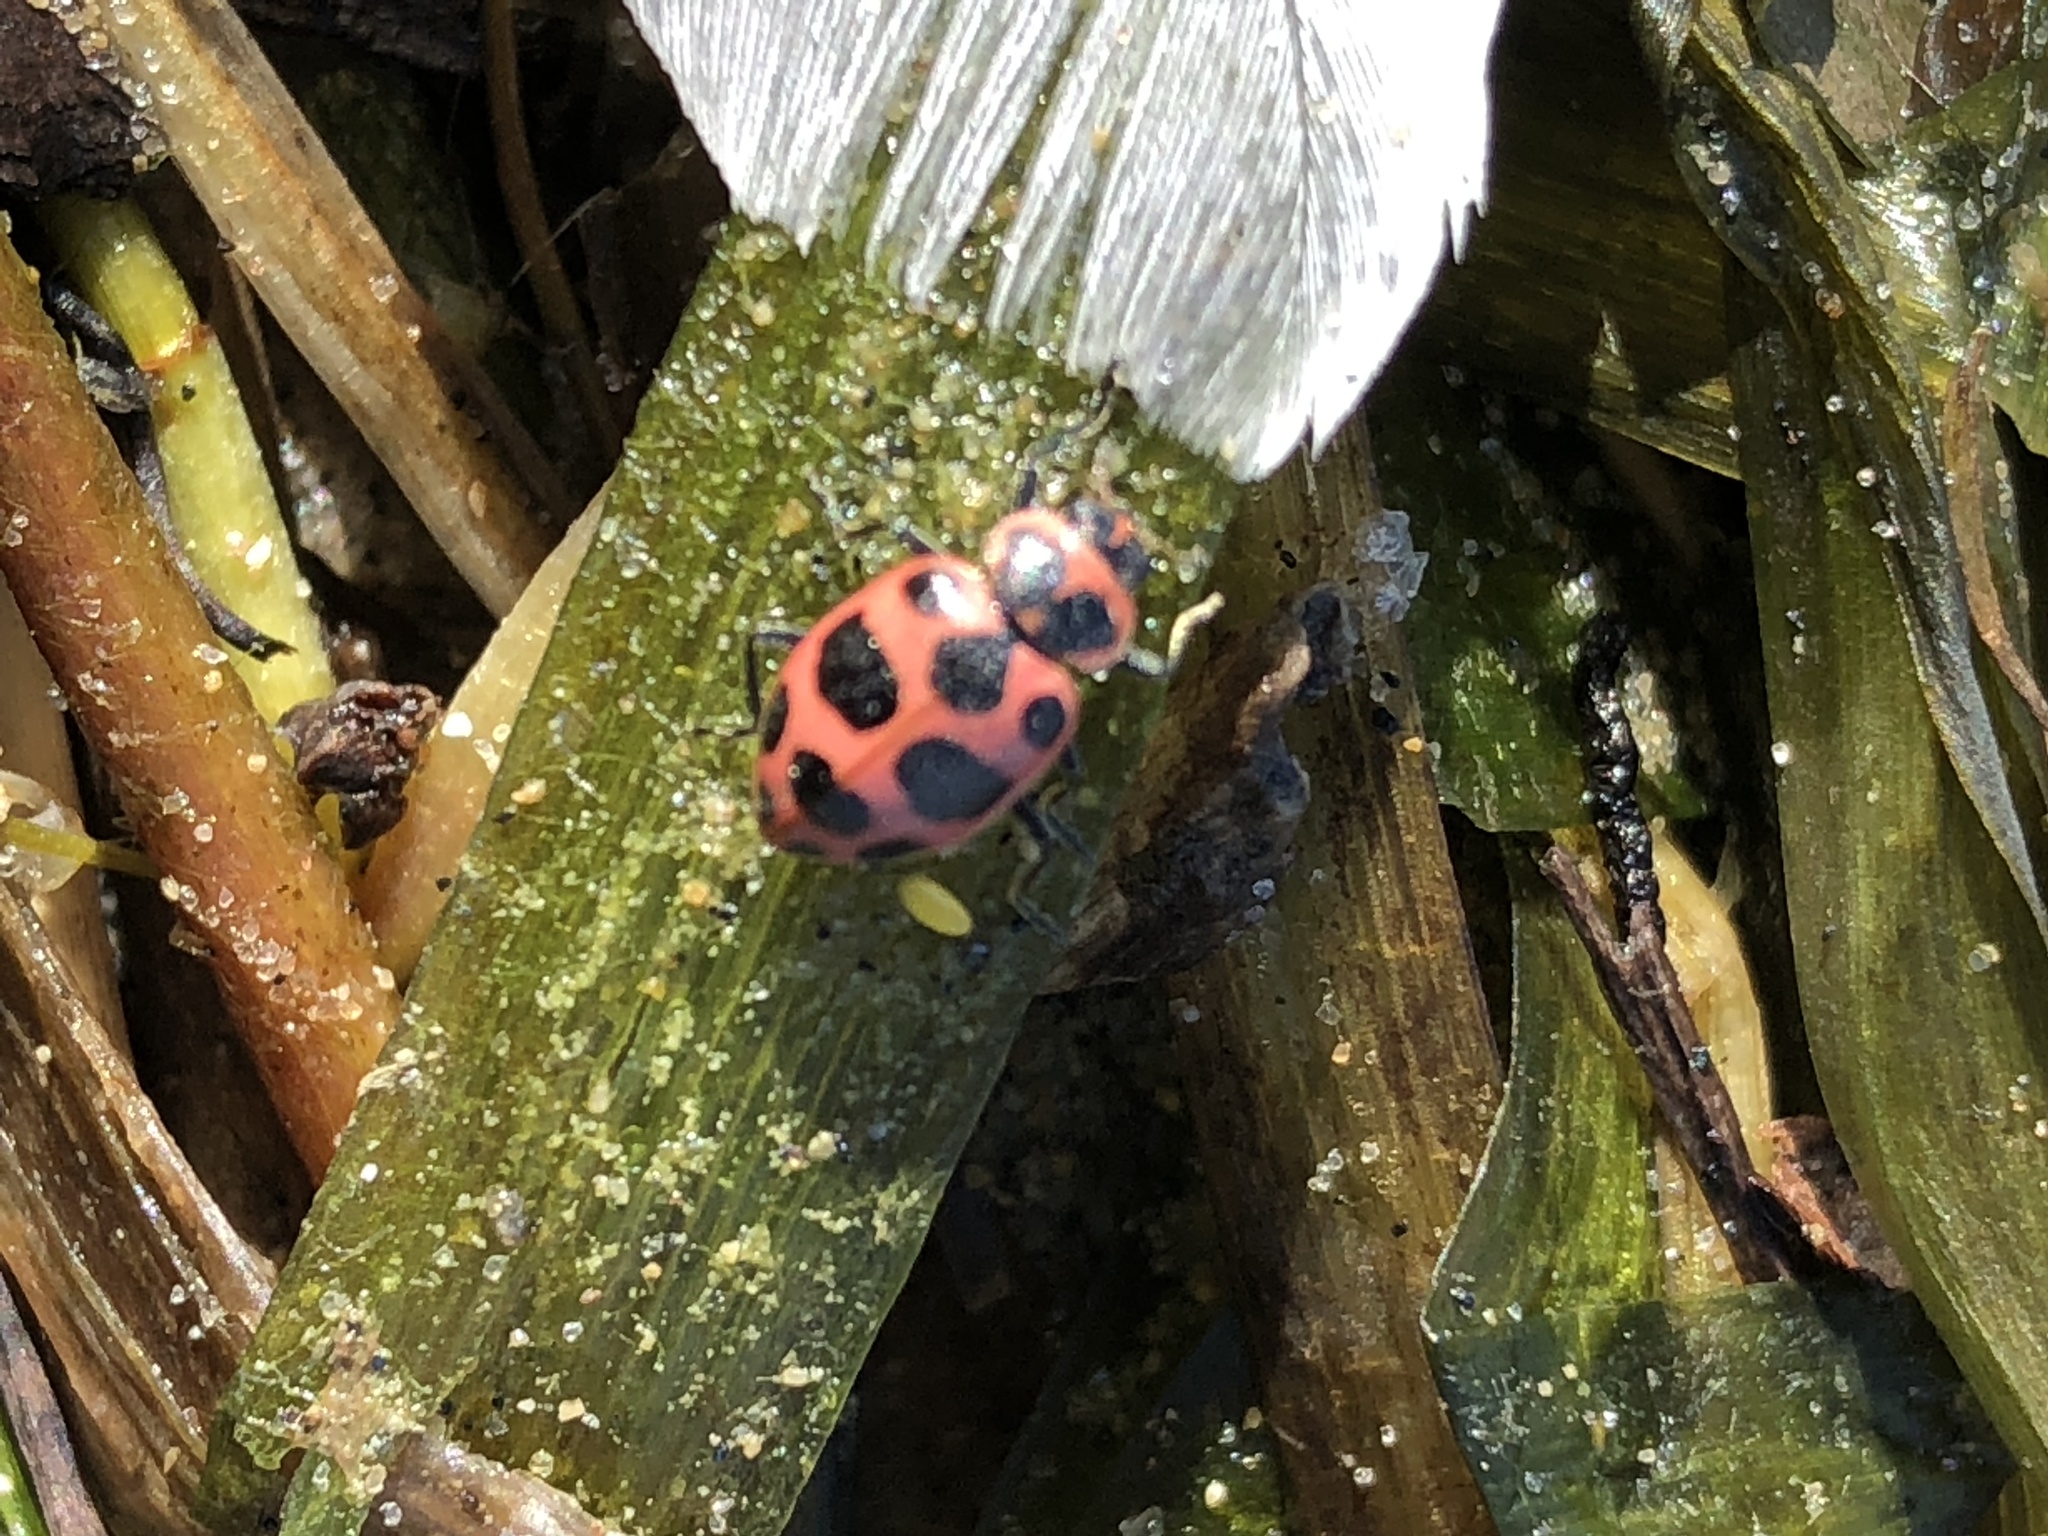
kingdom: Animalia
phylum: Arthropoda
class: Insecta
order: Coleoptera
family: Coccinellidae
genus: Coleomegilla
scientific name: Coleomegilla maculata
